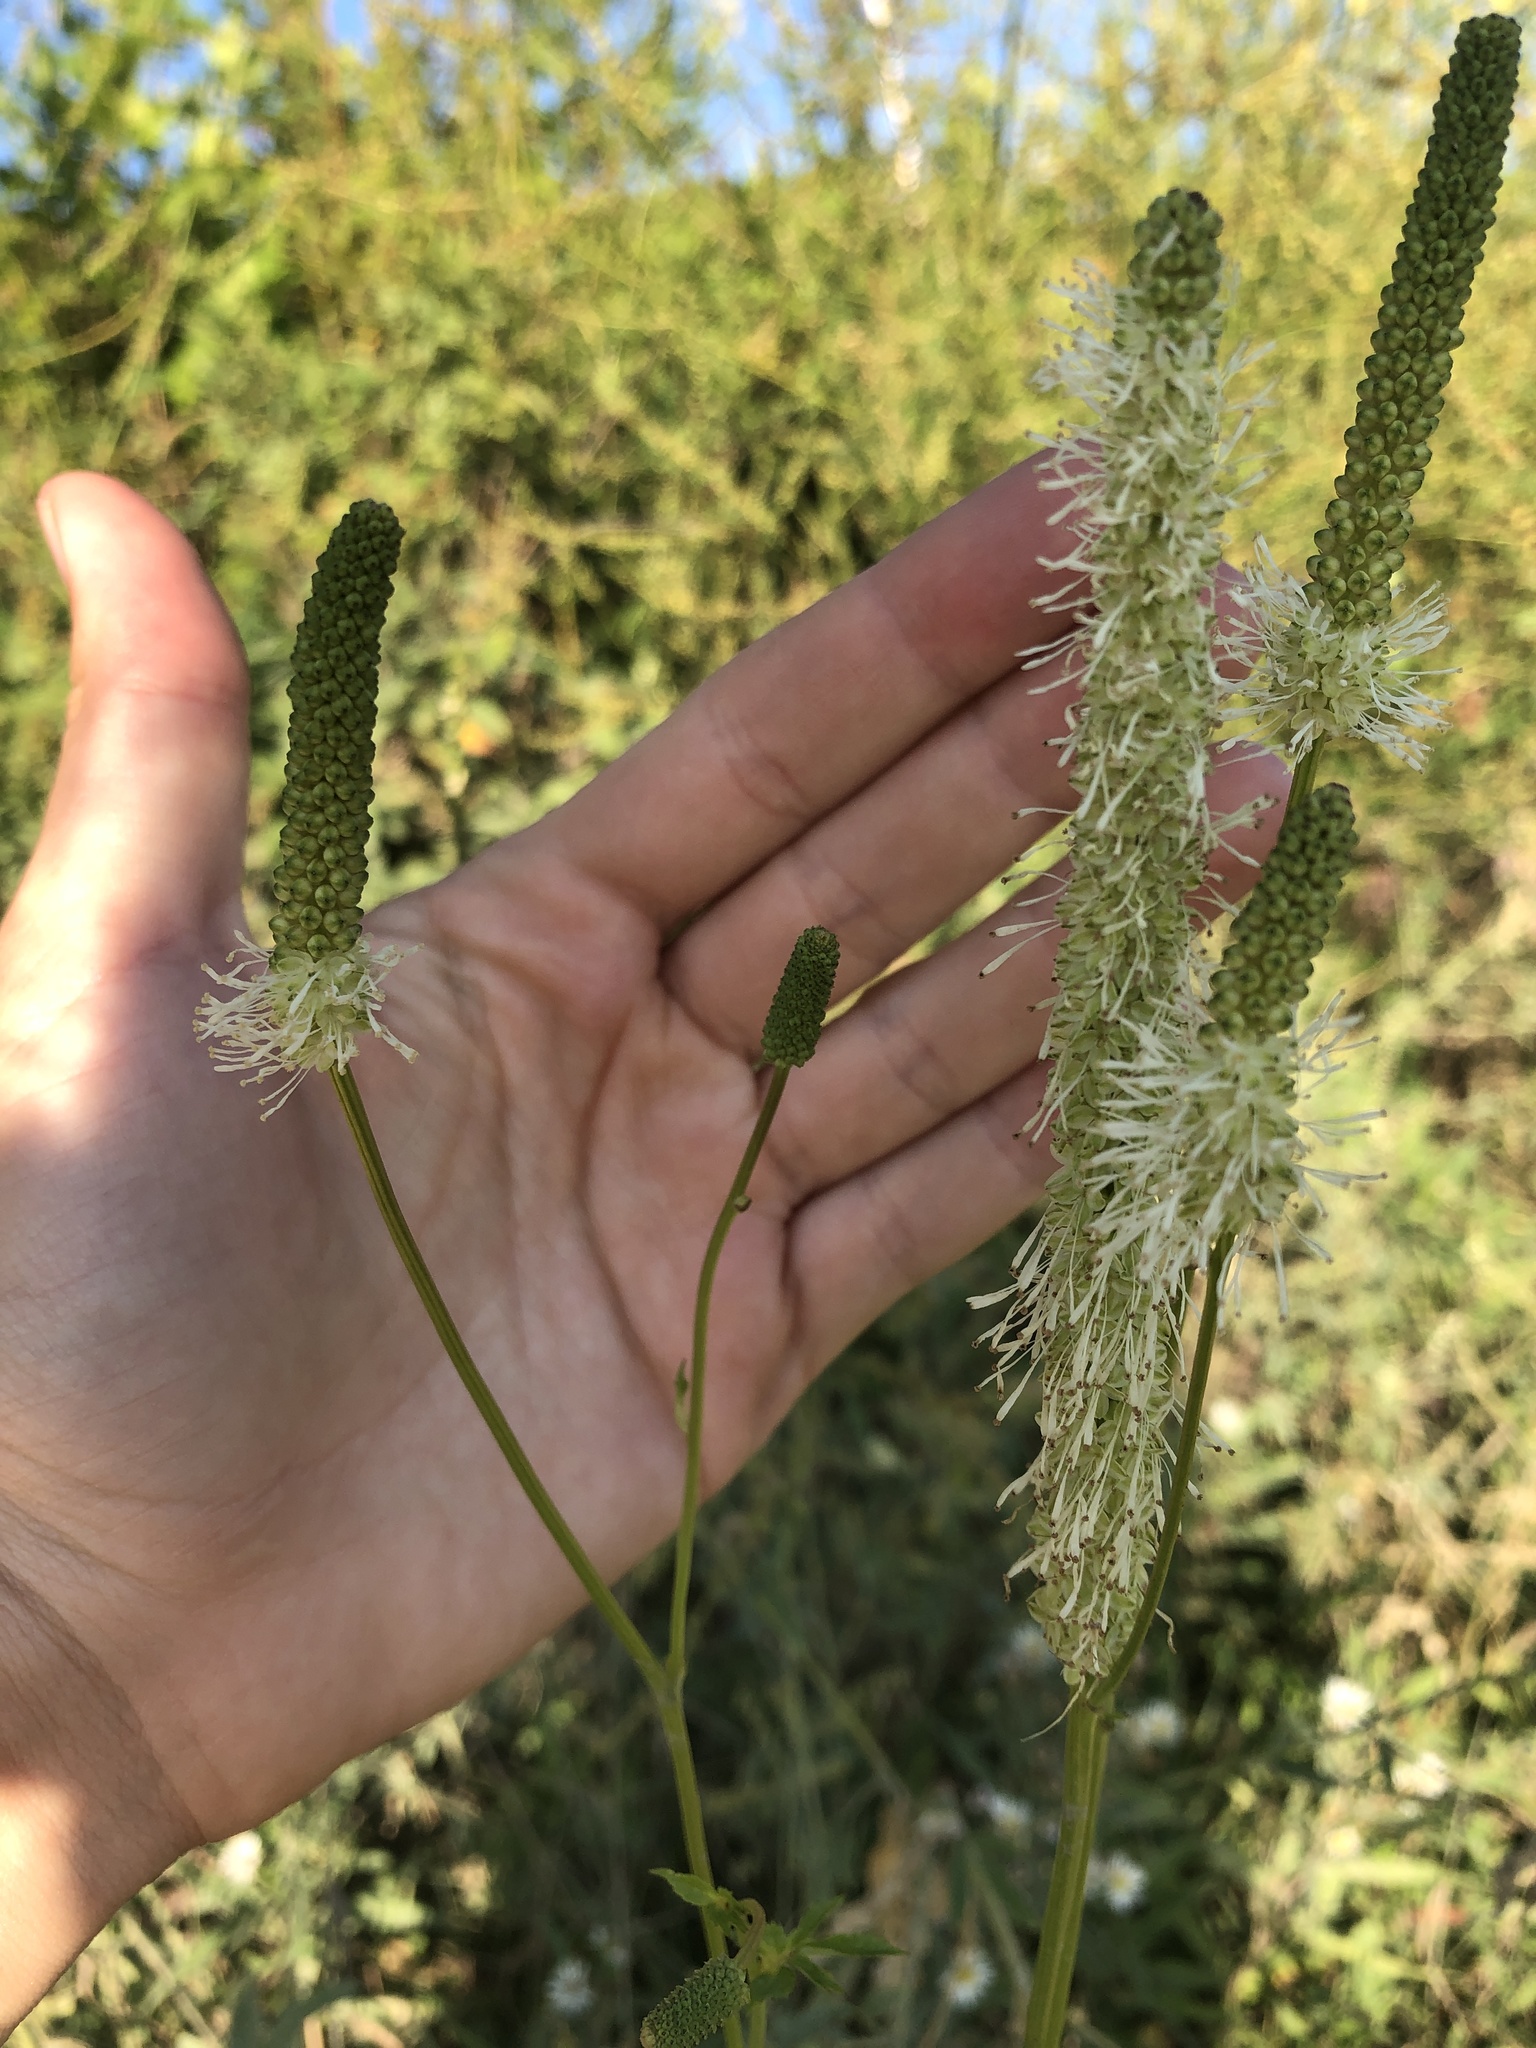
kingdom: Plantae
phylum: Tracheophyta
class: Magnoliopsida
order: Rosales
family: Rosaceae
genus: Sanguisorba
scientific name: Sanguisorba canadensis
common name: White burnet
